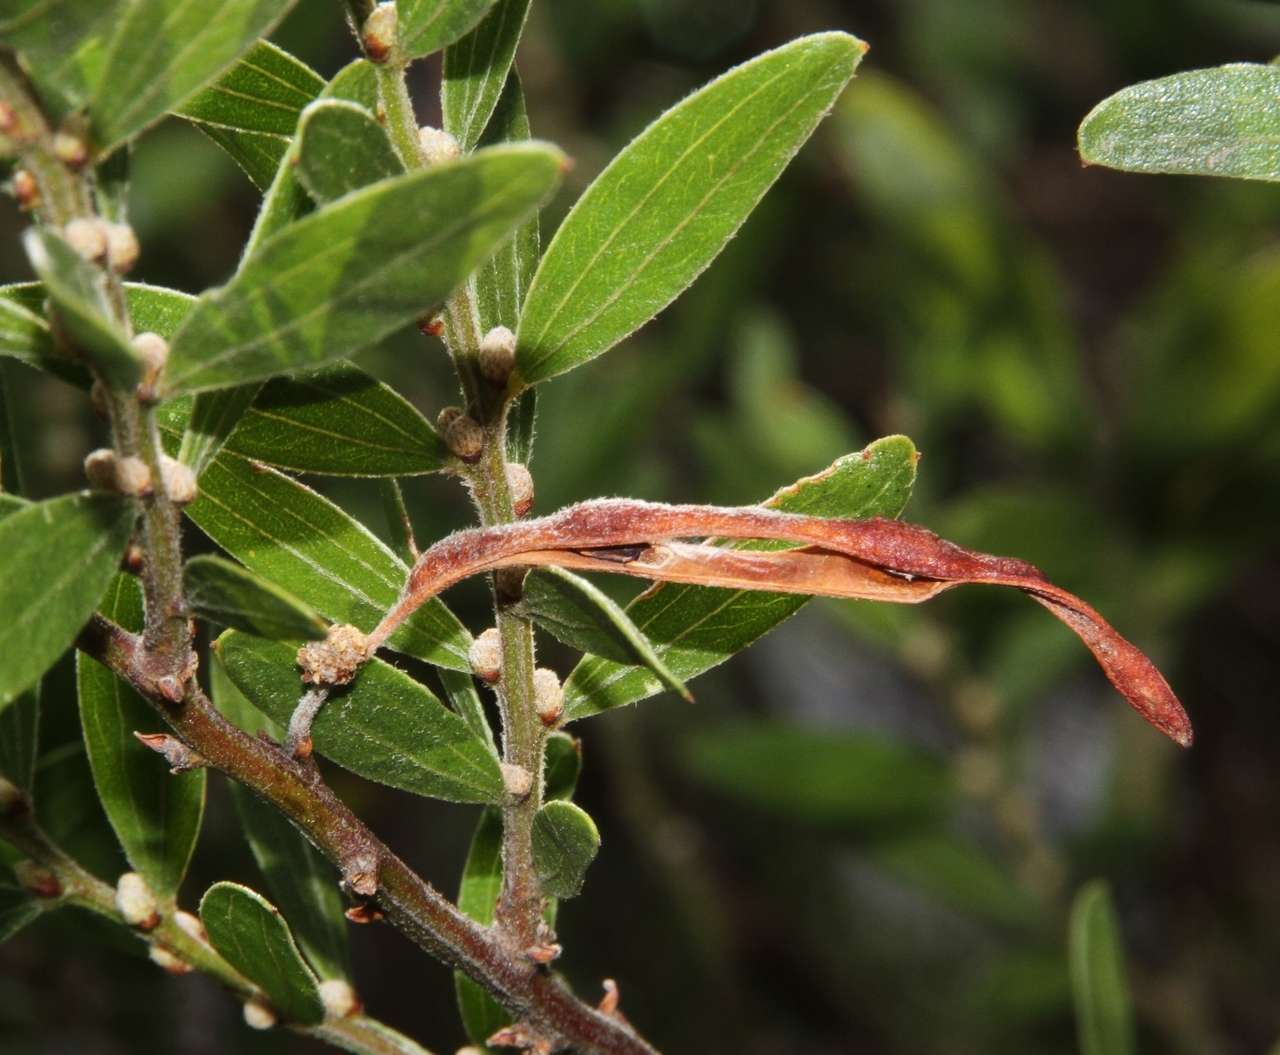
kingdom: Plantae
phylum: Tracheophyta
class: Magnoliopsida
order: Fabales
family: Fabaceae
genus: Acacia
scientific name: Acacia rostriformis
